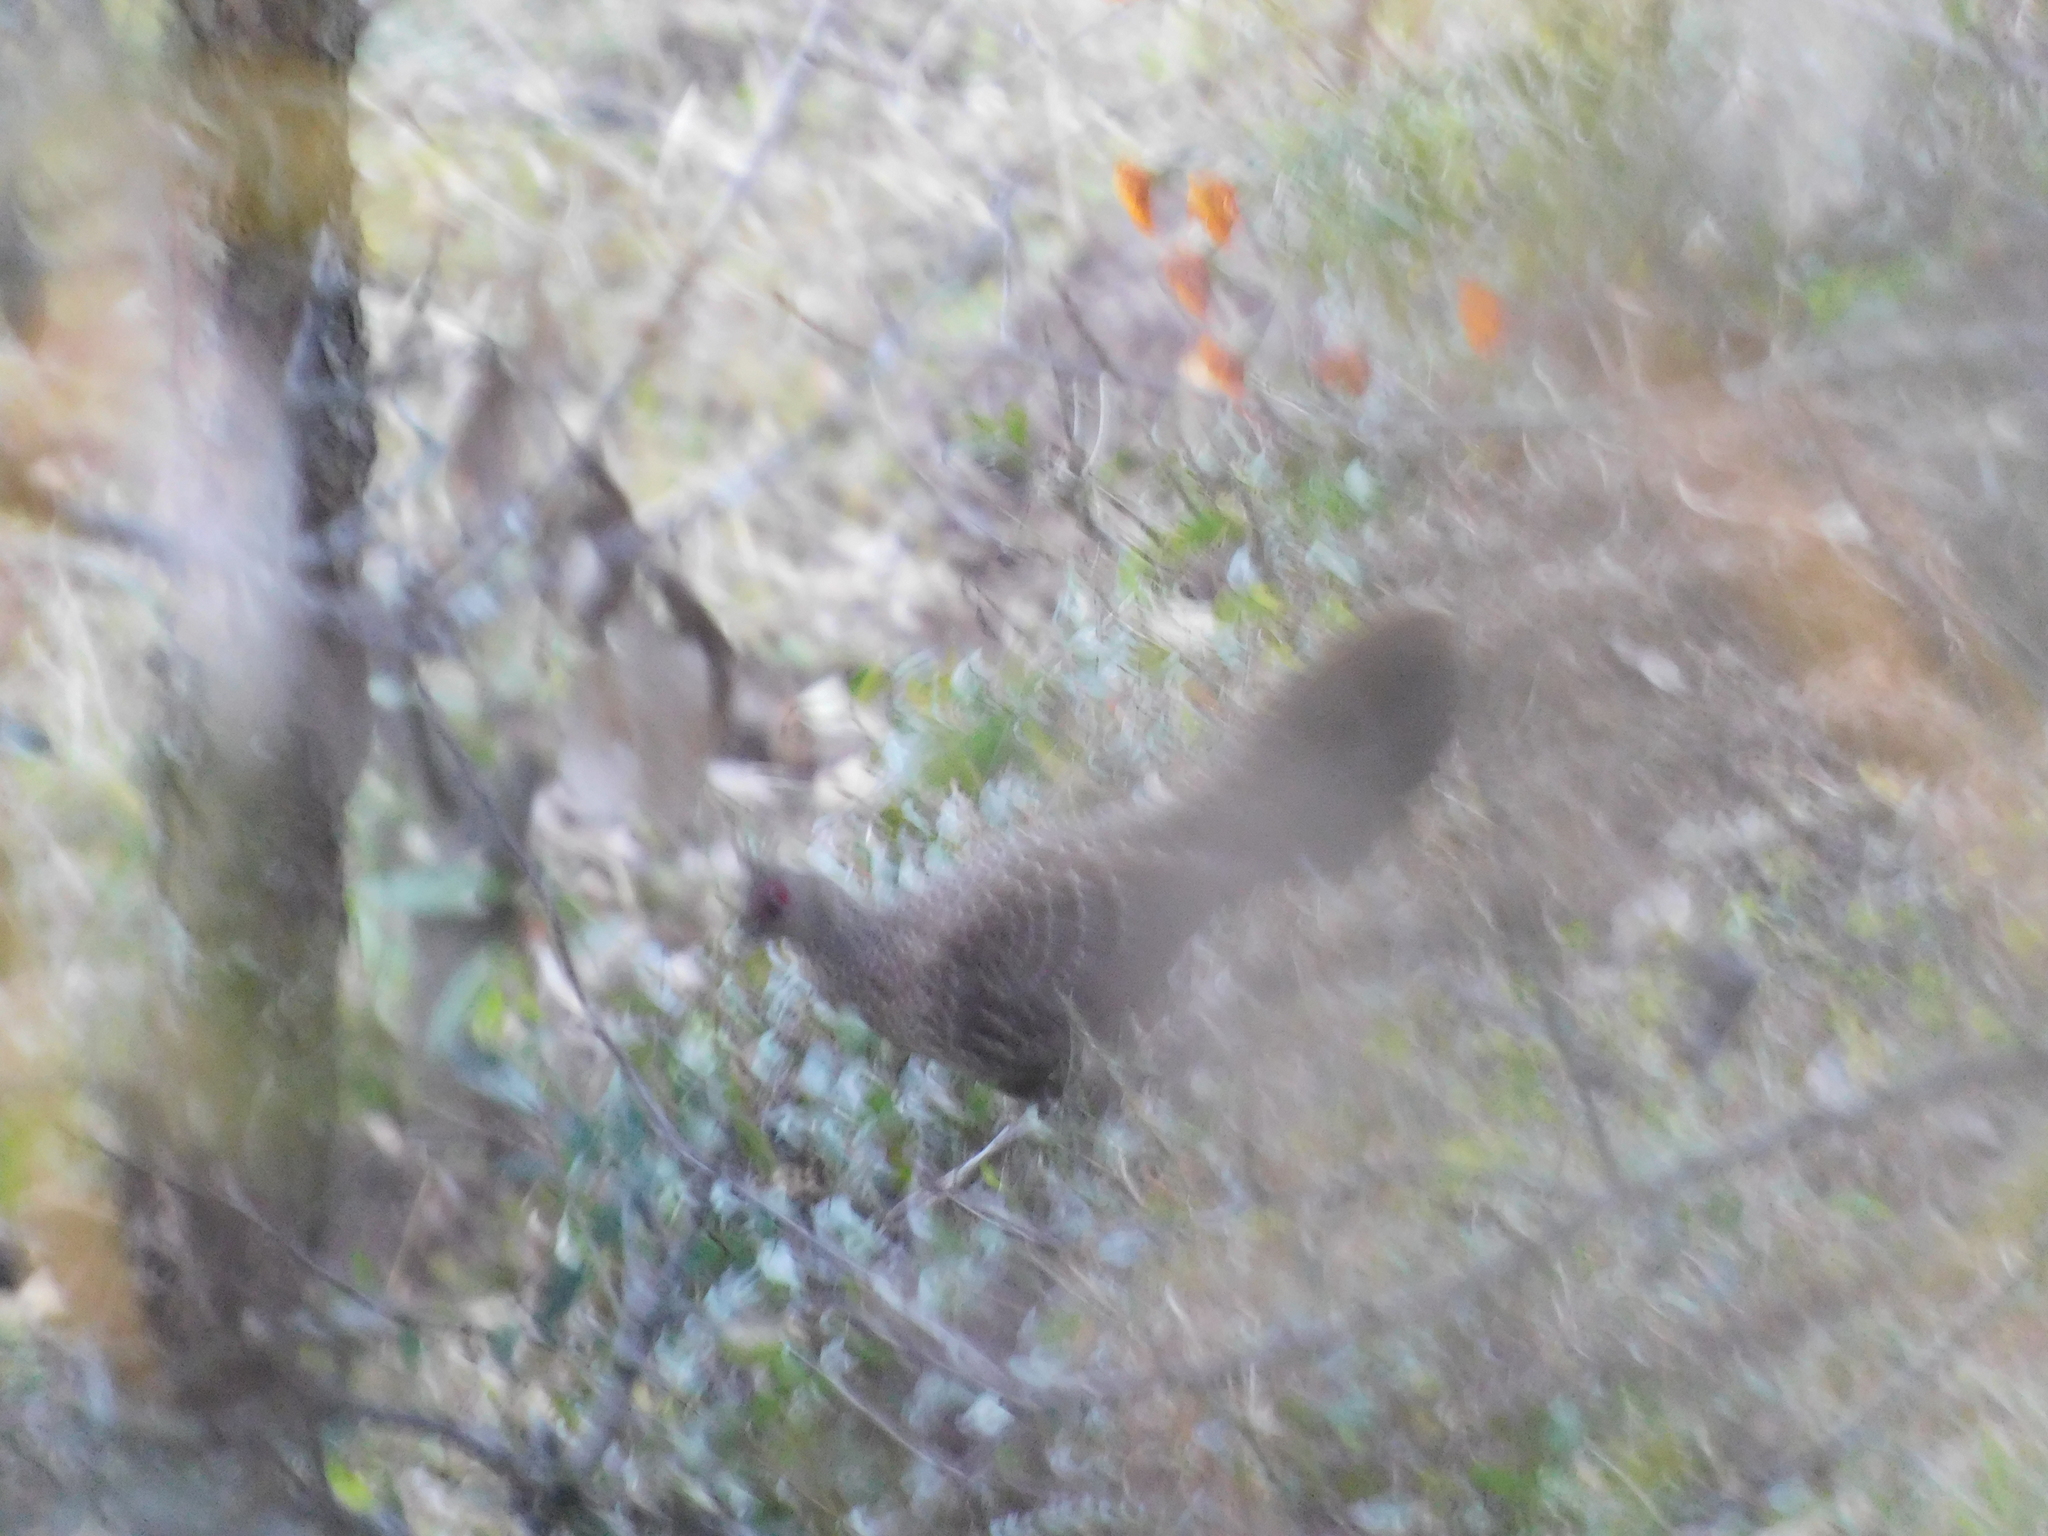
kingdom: Animalia
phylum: Chordata
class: Aves
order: Galliformes
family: Phasianidae
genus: Lophura
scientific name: Lophura leucomelanos
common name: Kalij pheasant
